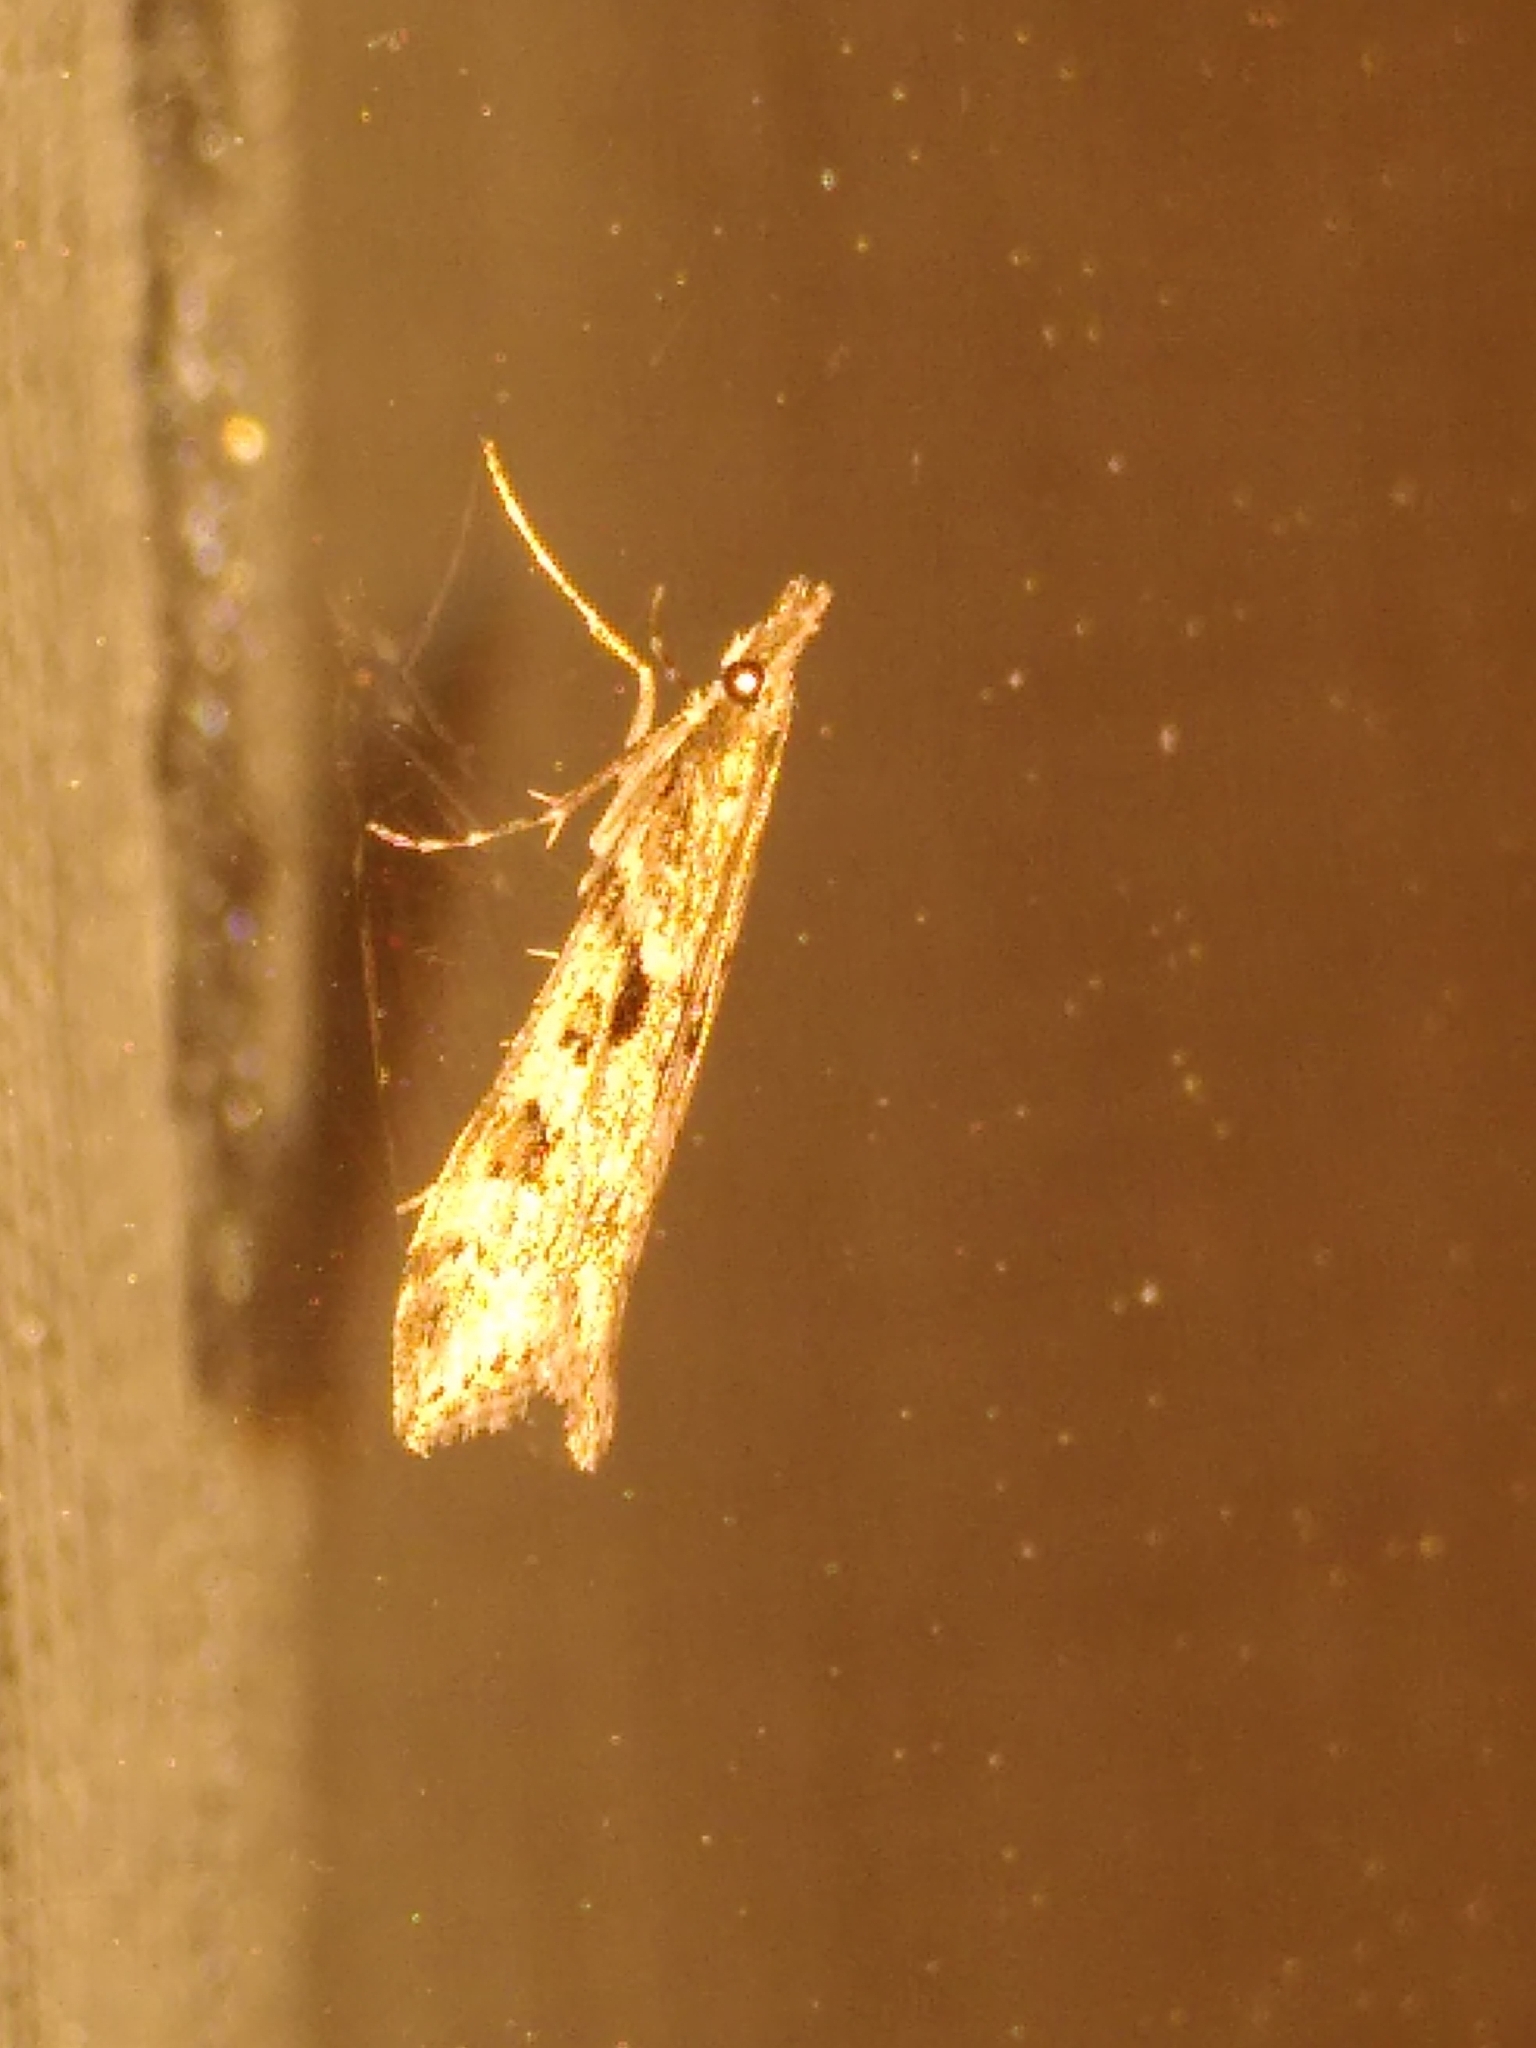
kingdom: Animalia
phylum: Arthropoda
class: Insecta
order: Lepidoptera
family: Crambidae
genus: Eudonia
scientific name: Eudonia angustea
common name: Narrow-winged grey
